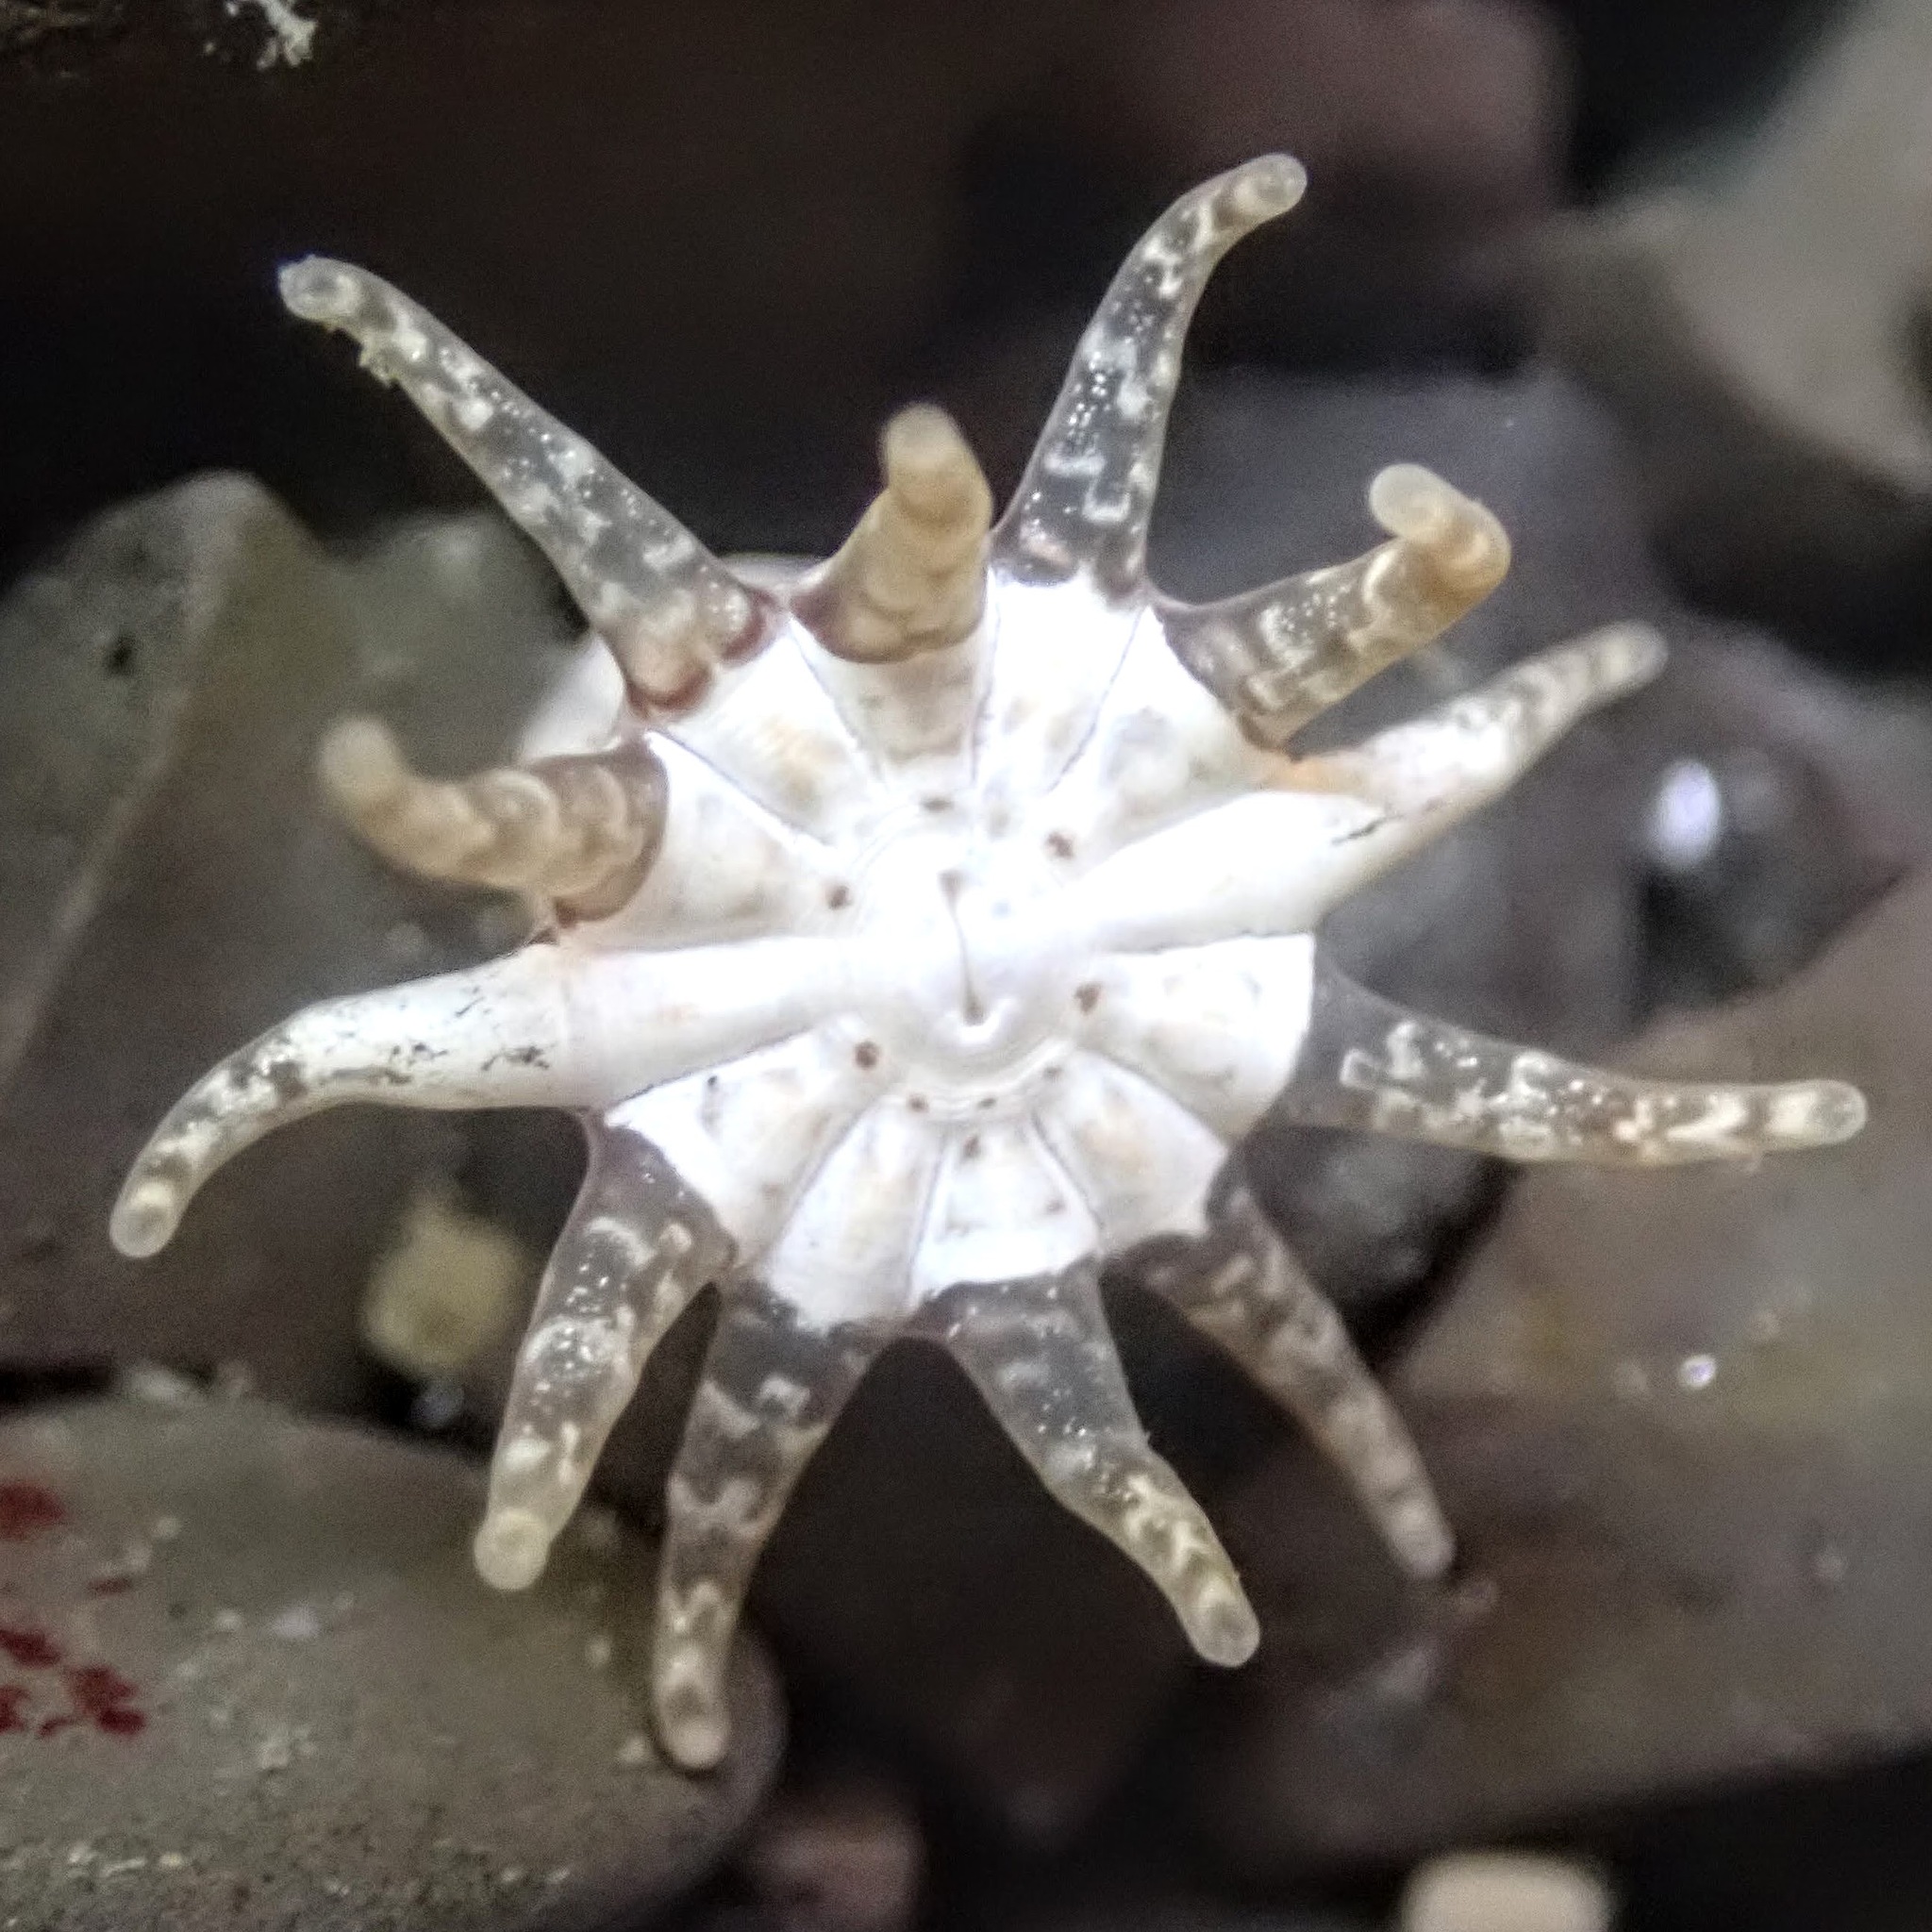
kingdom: Animalia
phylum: Cnidaria
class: Anthozoa
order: Actiniaria
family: Halcampidae
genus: Halcampa
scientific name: Halcampa crypta
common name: Cryptic burrowing anemone
